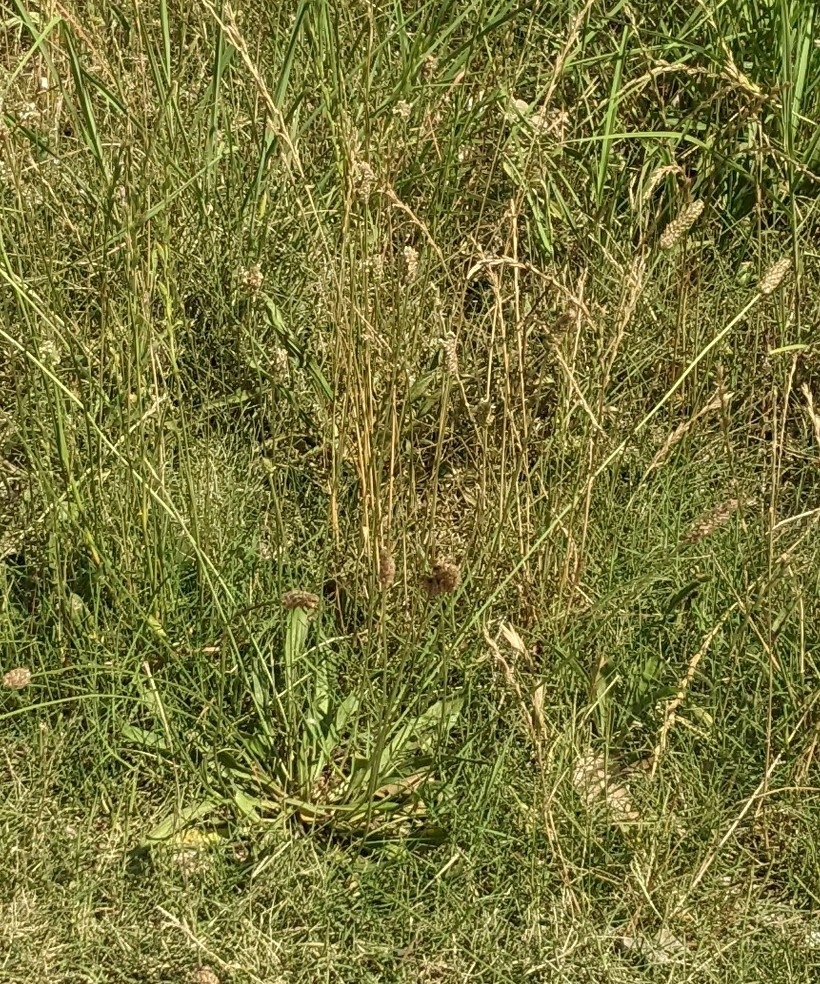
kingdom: Plantae
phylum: Tracheophyta
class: Magnoliopsida
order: Lamiales
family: Plantaginaceae
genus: Plantago
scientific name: Plantago lanceolata
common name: Ribwort plantain
